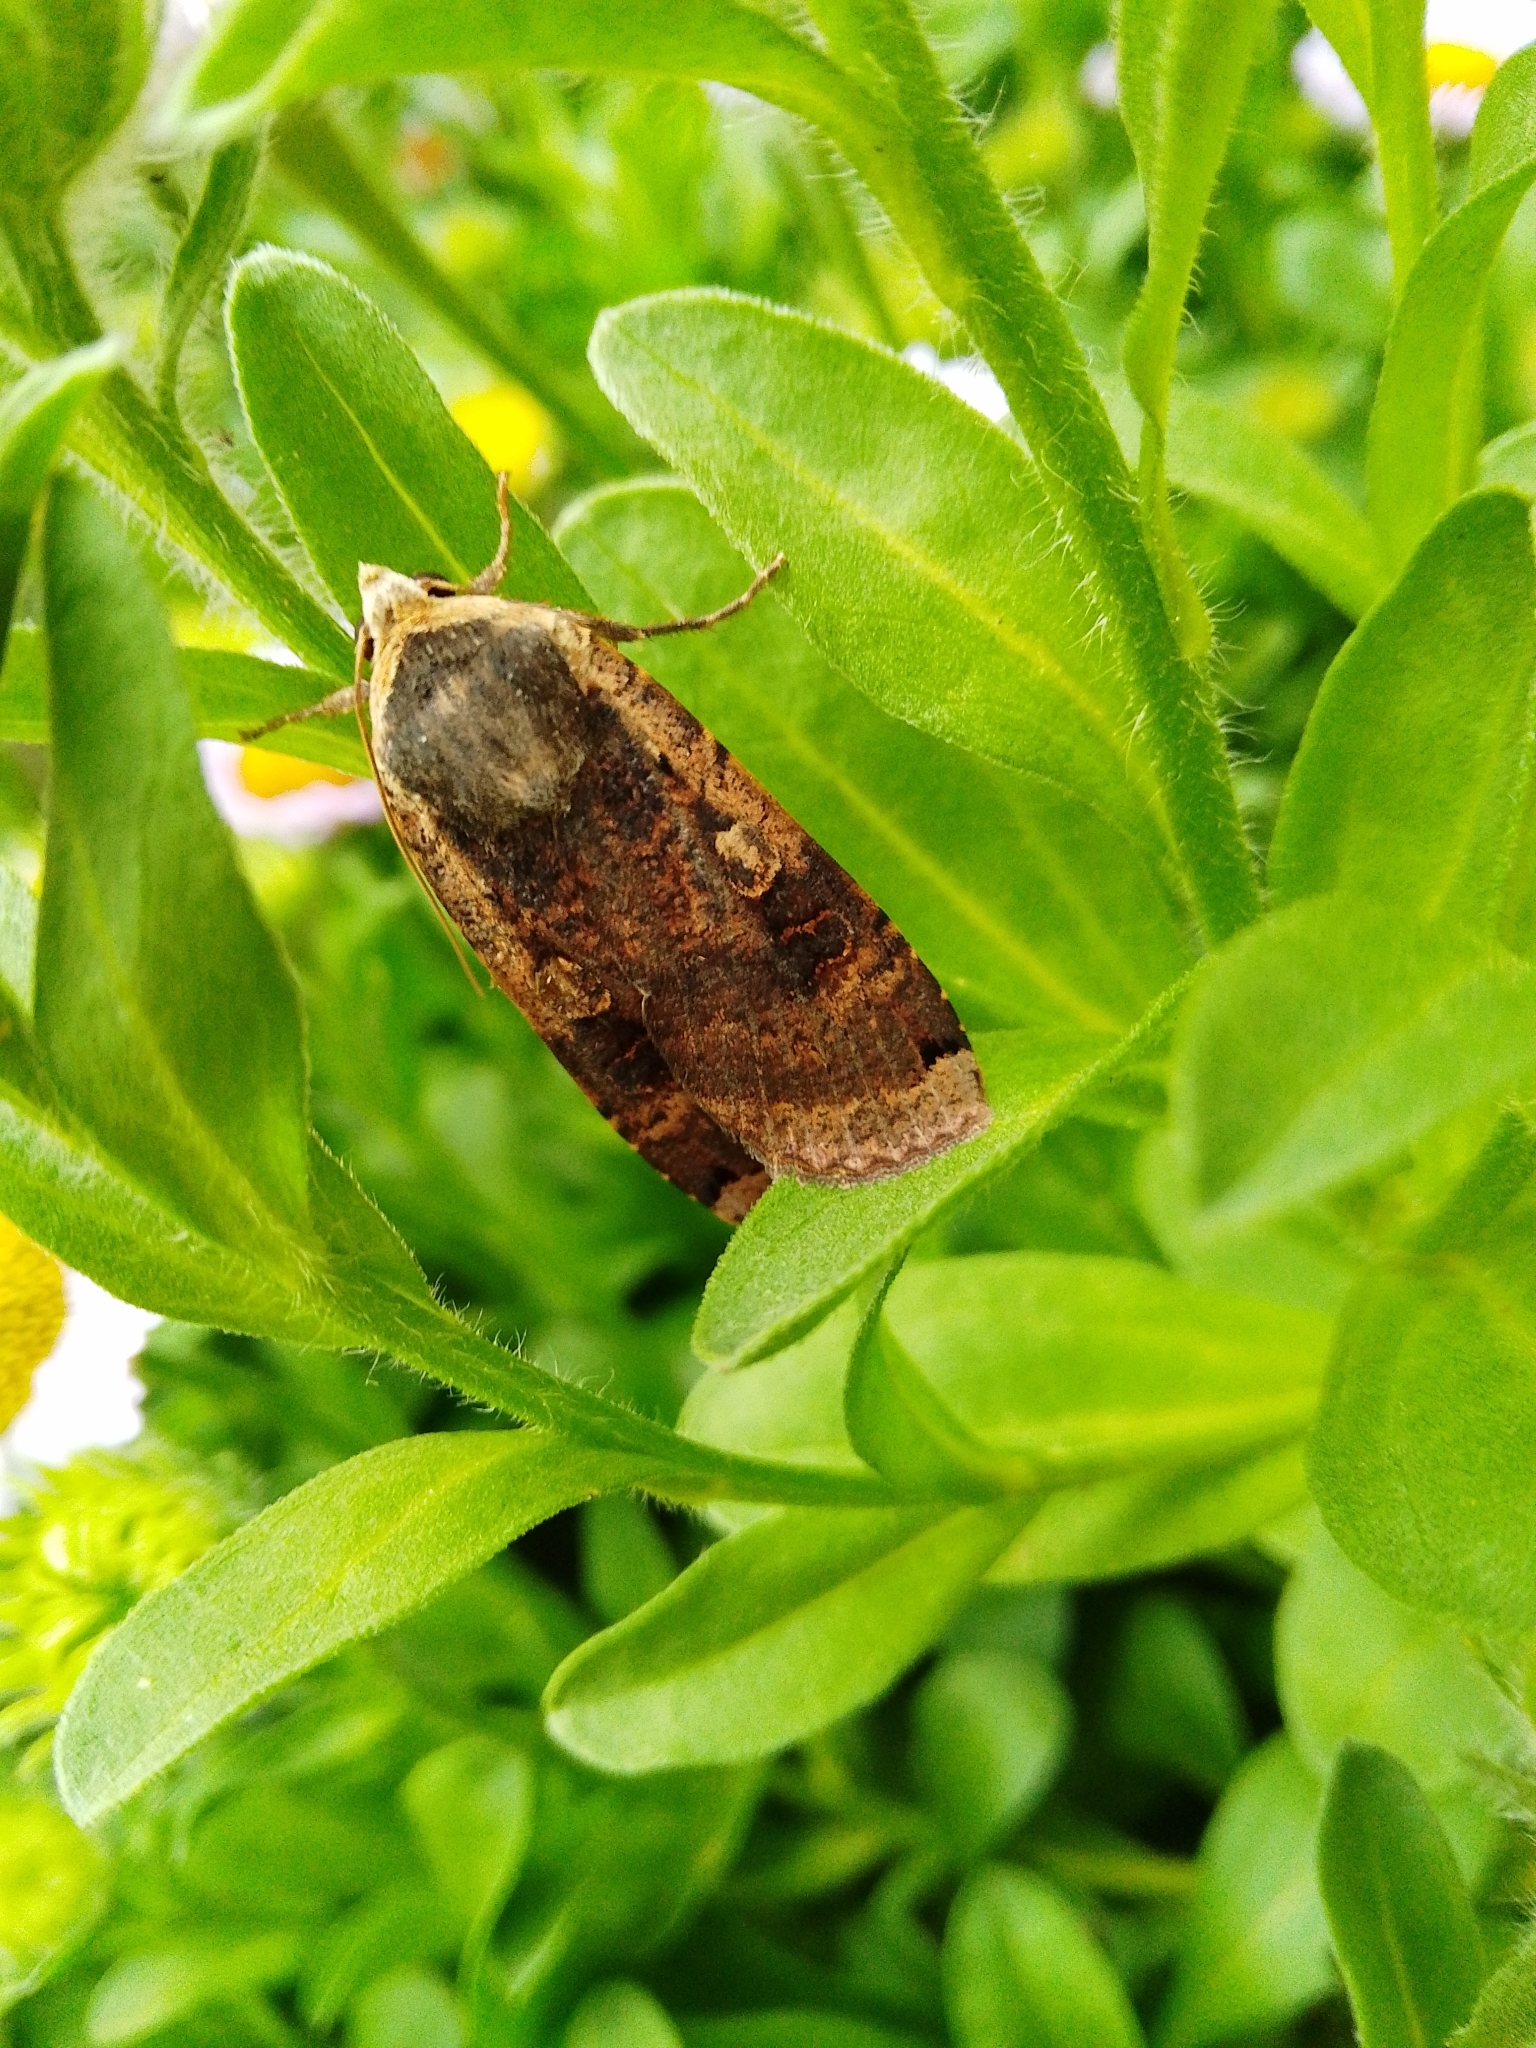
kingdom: Animalia
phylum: Arthropoda
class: Insecta
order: Lepidoptera
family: Noctuidae
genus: Noctua
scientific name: Noctua pronuba
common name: Large yellow underwing
